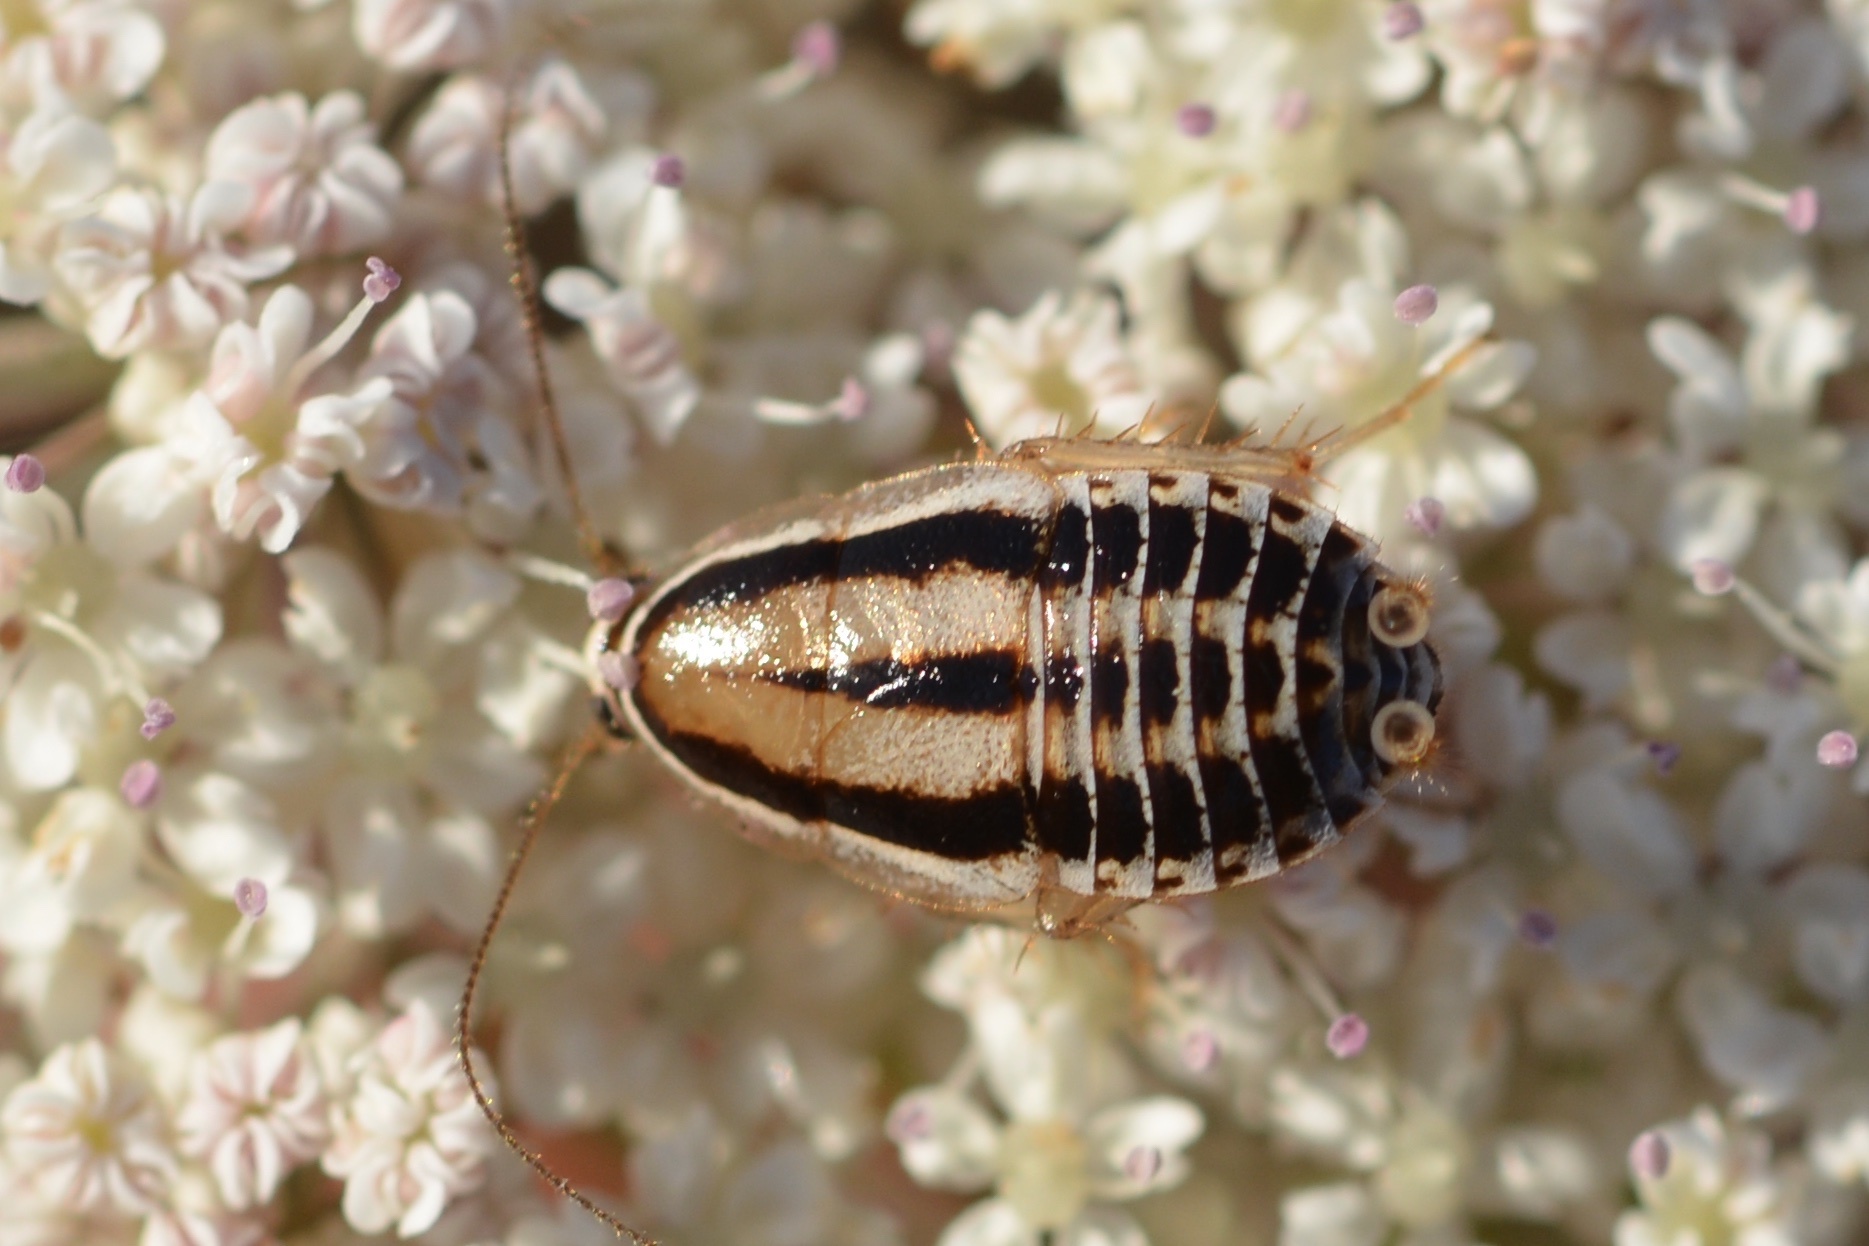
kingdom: Animalia
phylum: Arthropoda
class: Insecta
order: Blattodea
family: Ectobiidae
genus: Luridiblatta
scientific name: Luridiblatta trivittata
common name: Three-lined cockroach
